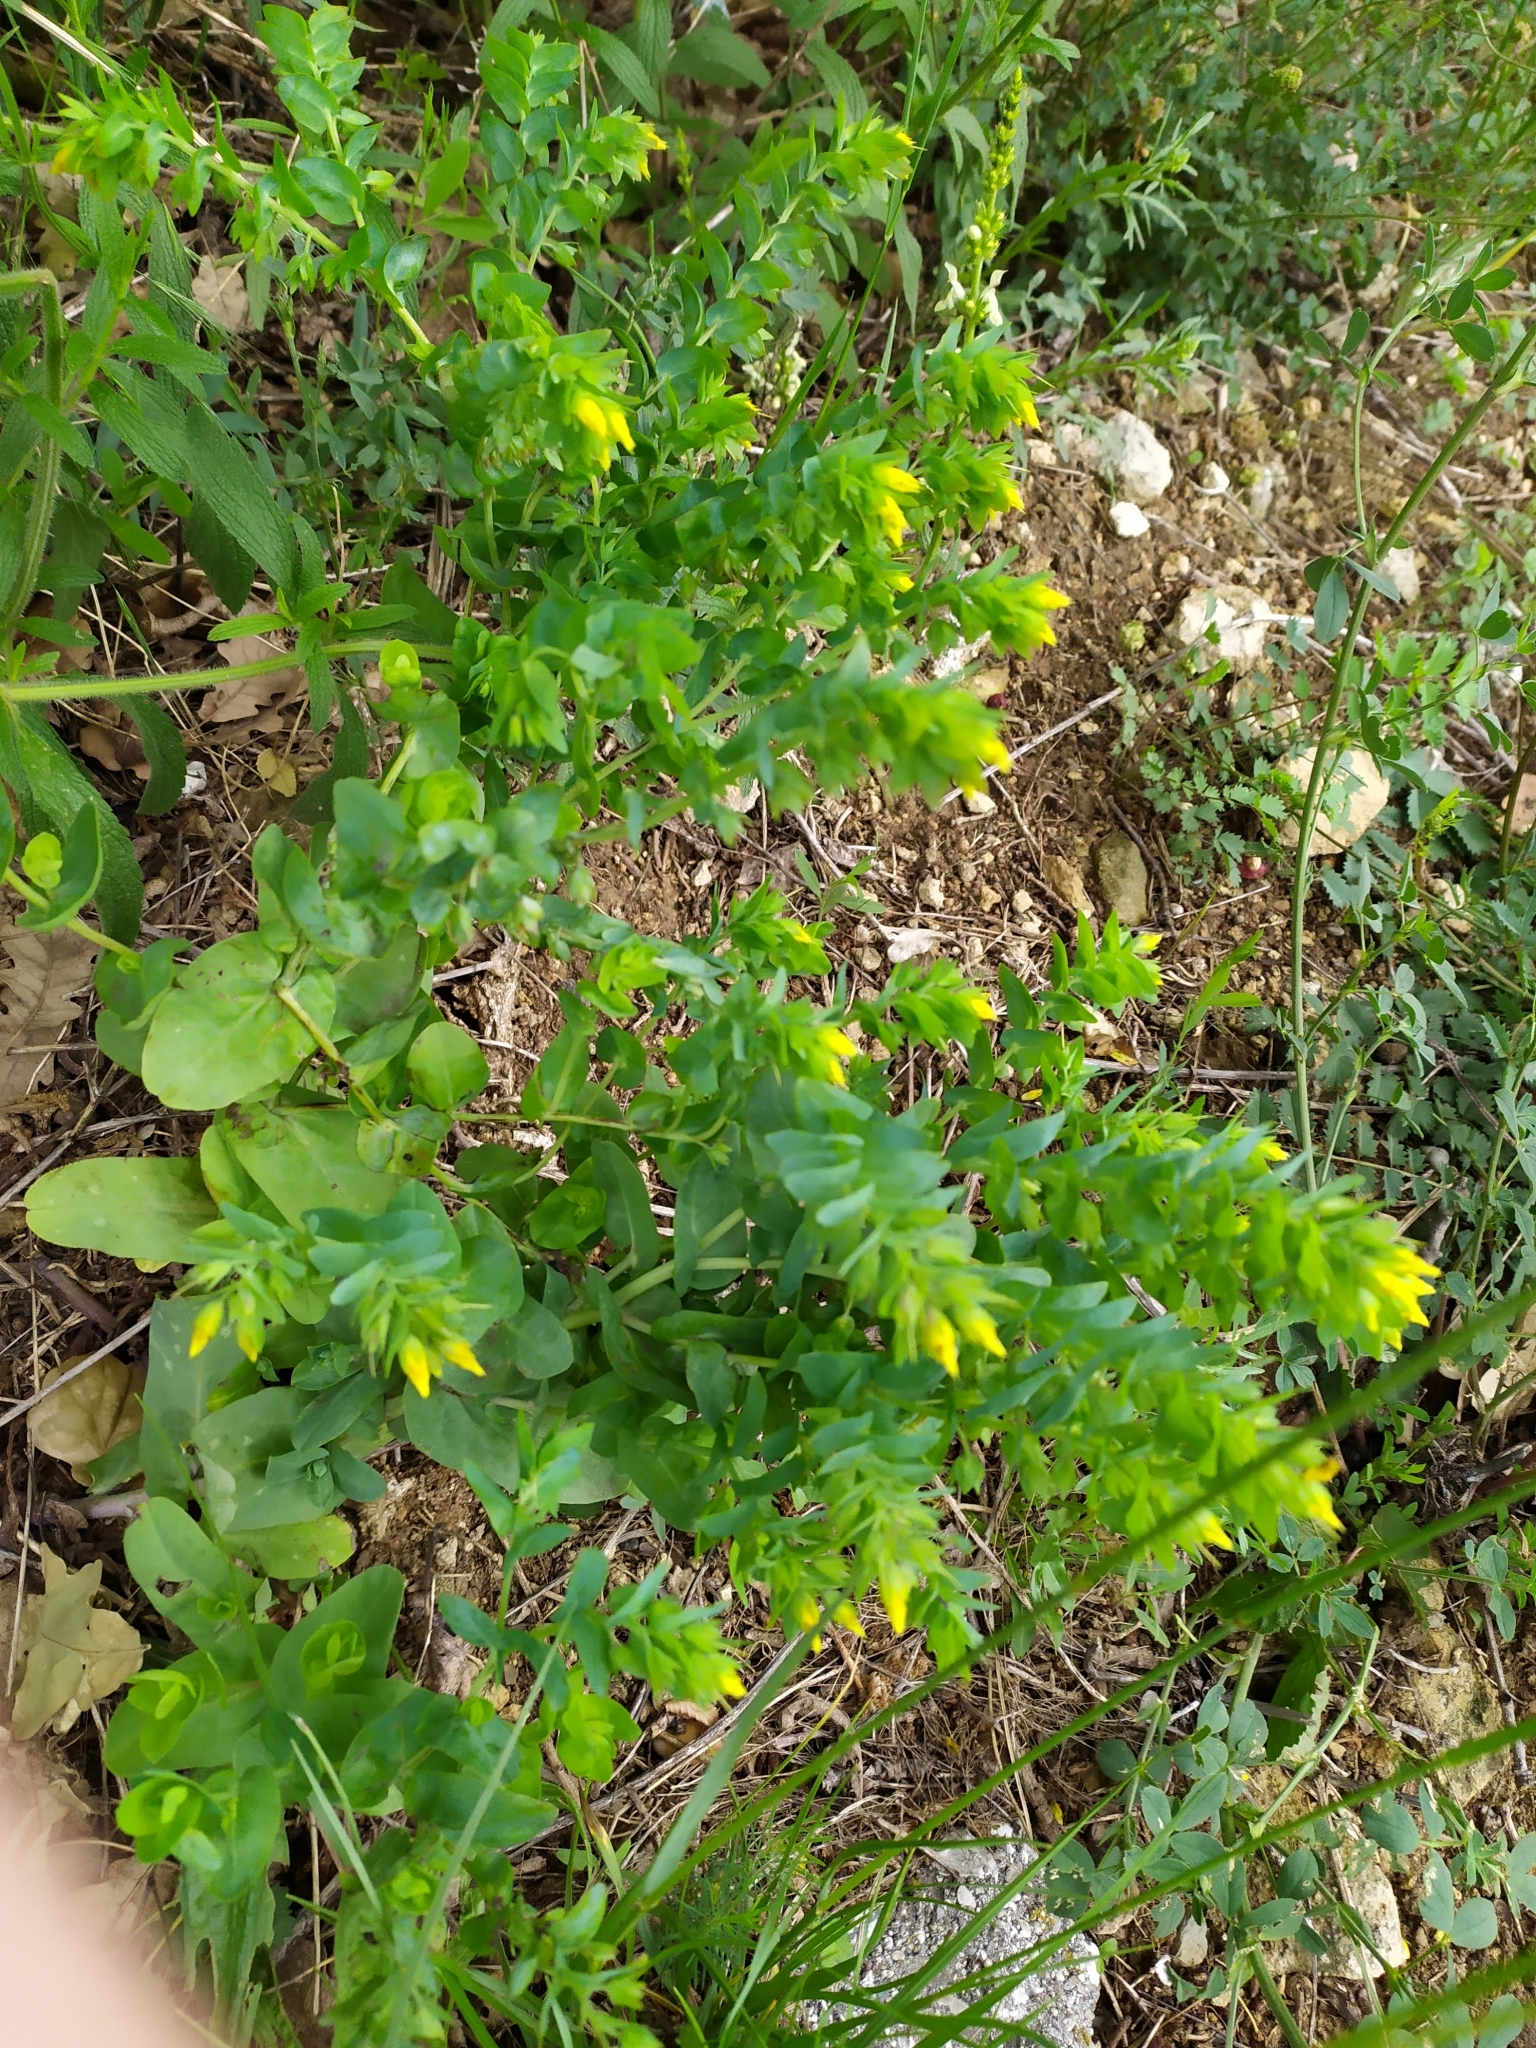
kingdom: Plantae
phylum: Tracheophyta
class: Magnoliopsida
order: Boraginales
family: Boraginaceae
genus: Cerinthe
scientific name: Cerinthe minor
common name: Lesser honeywort
